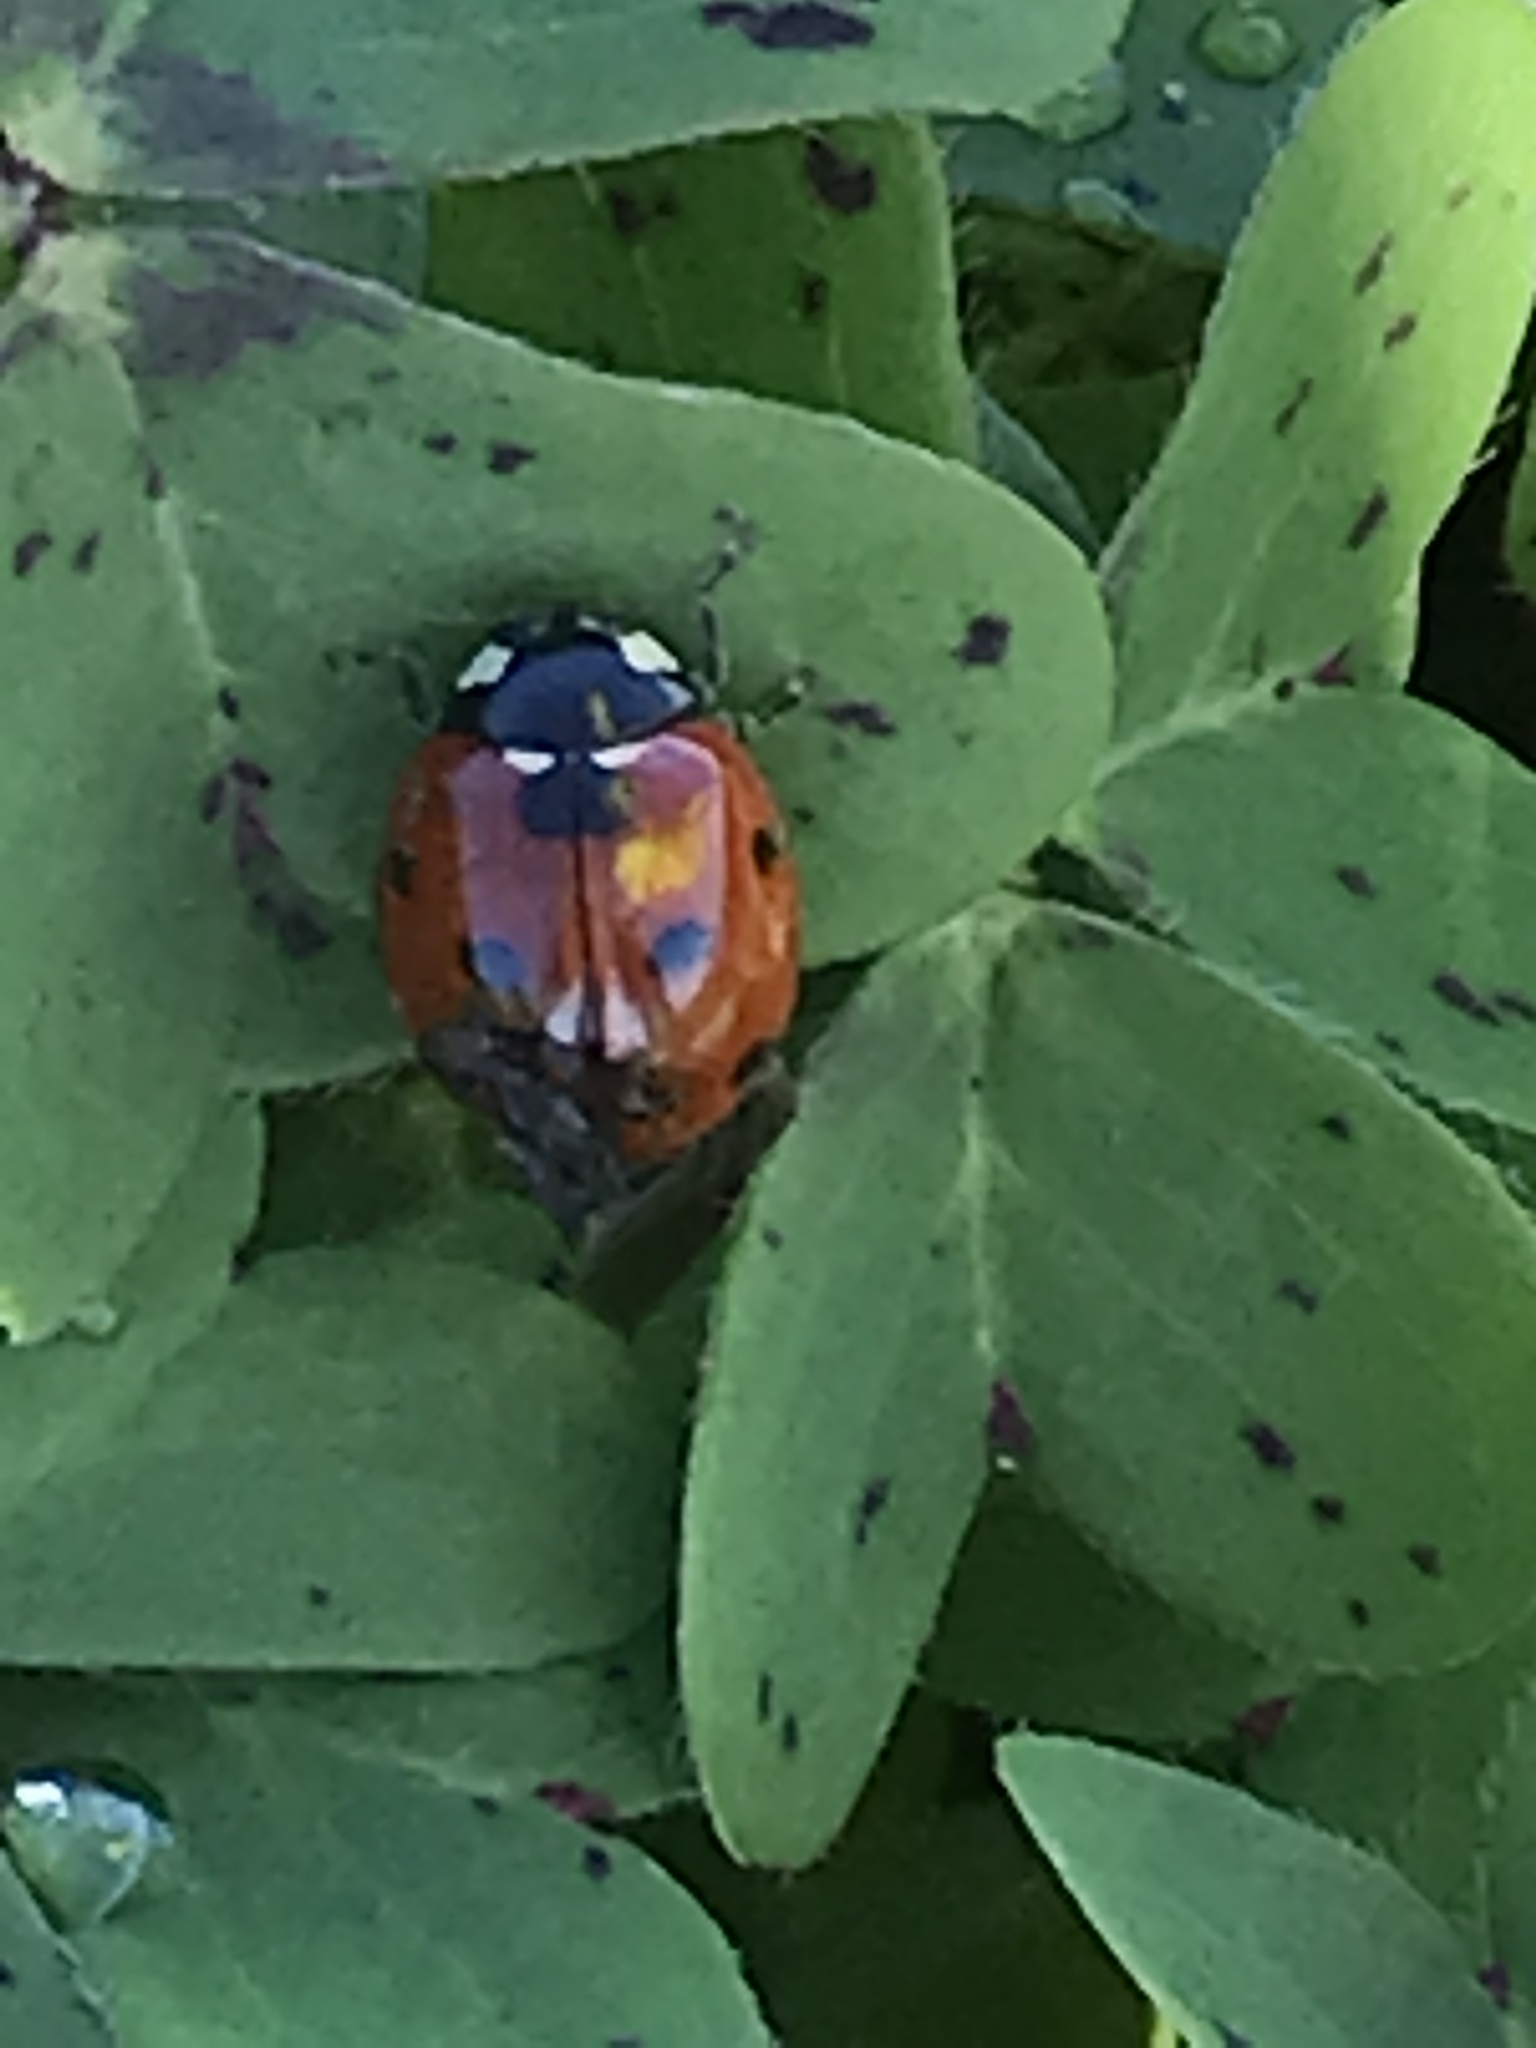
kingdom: Animalia
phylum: Arthropoda
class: Insecta
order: Coleoptera
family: Coccinellidae
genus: Coccinella
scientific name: Coccinella septempunctata
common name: Sevenspotted lady beetle
